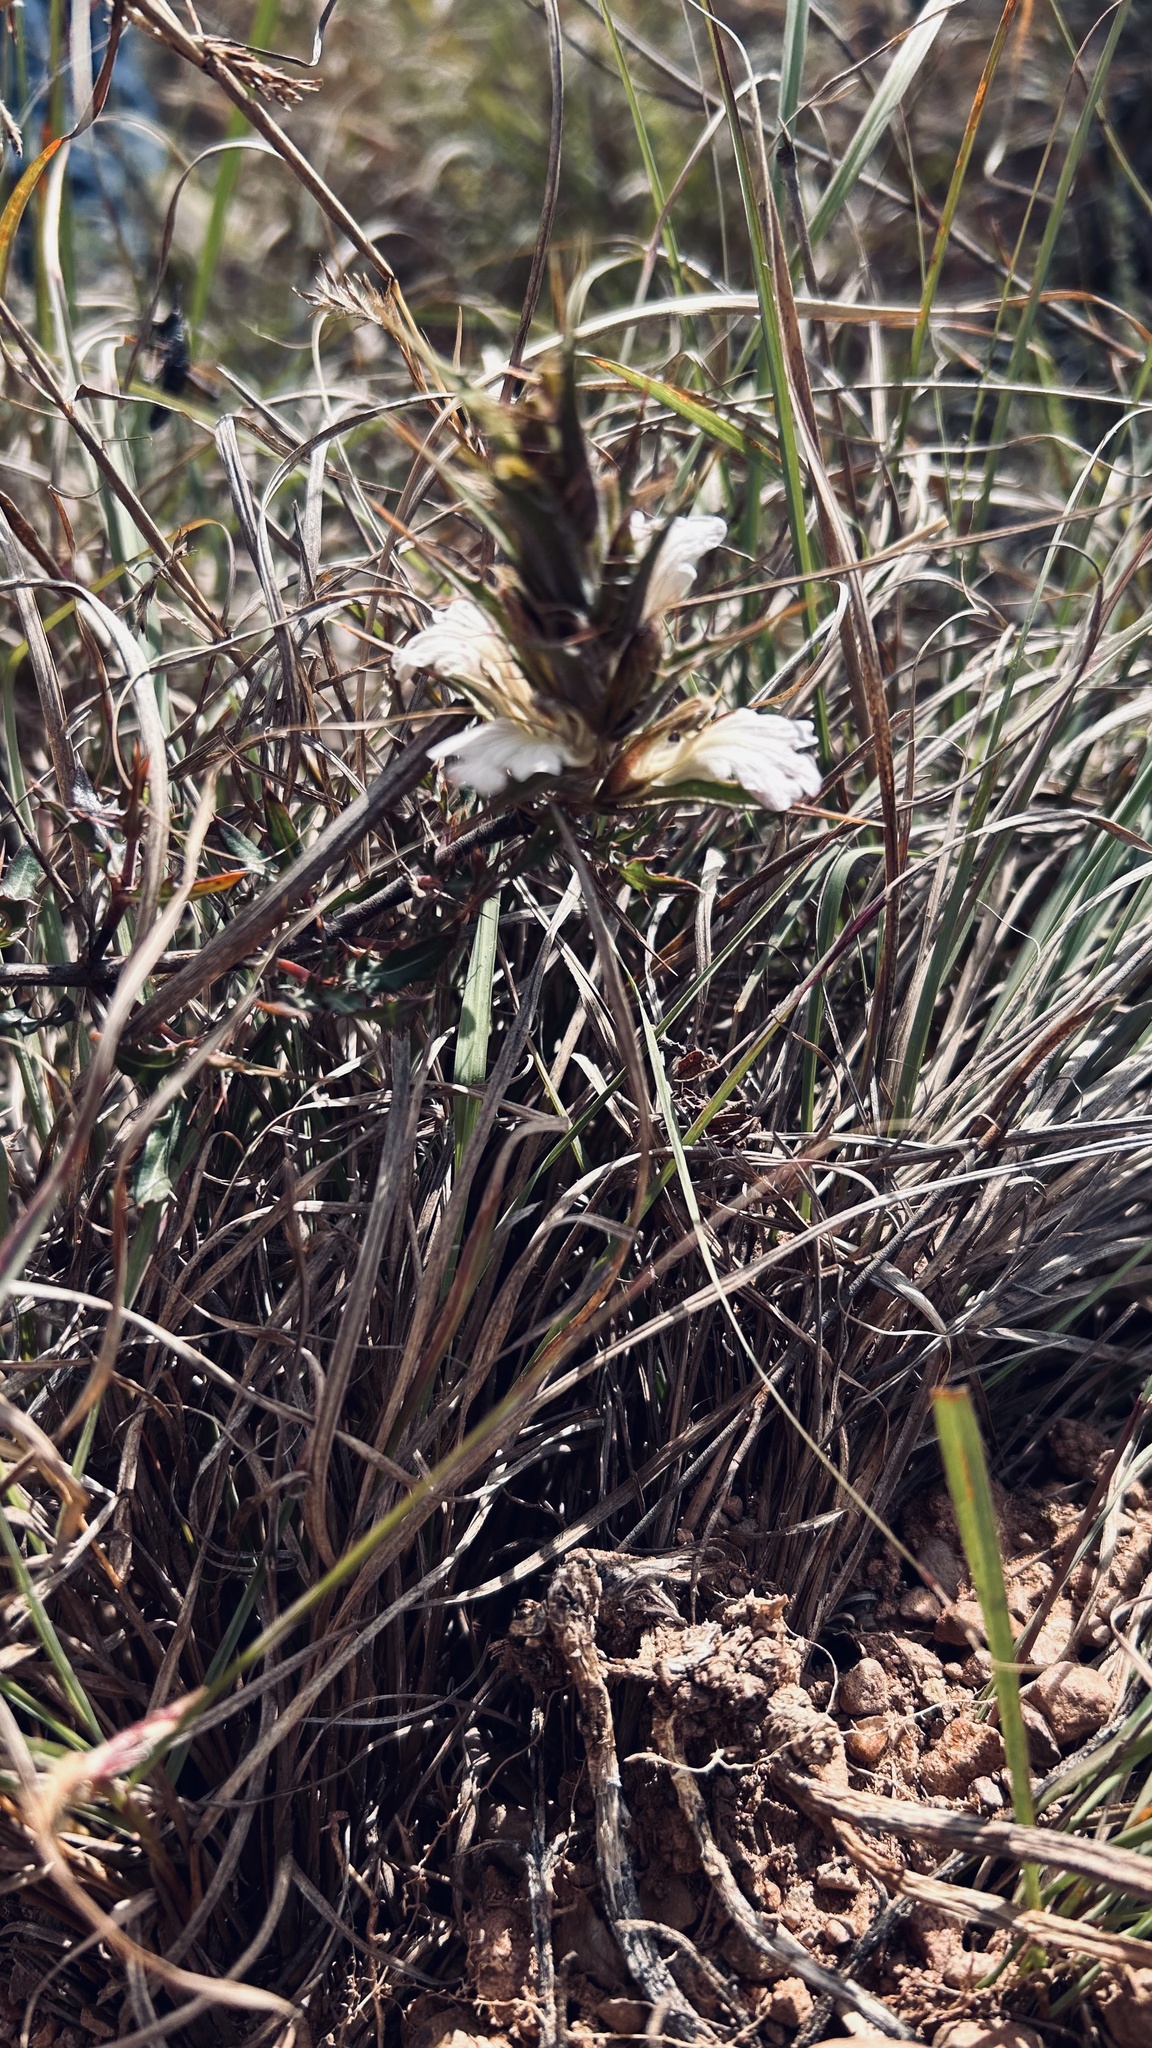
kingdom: Plantae
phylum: Tracheophyta
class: Magnoliopsida
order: Lamiales
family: Acanthaceae
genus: Blepharis
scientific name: Blepharis capensis
